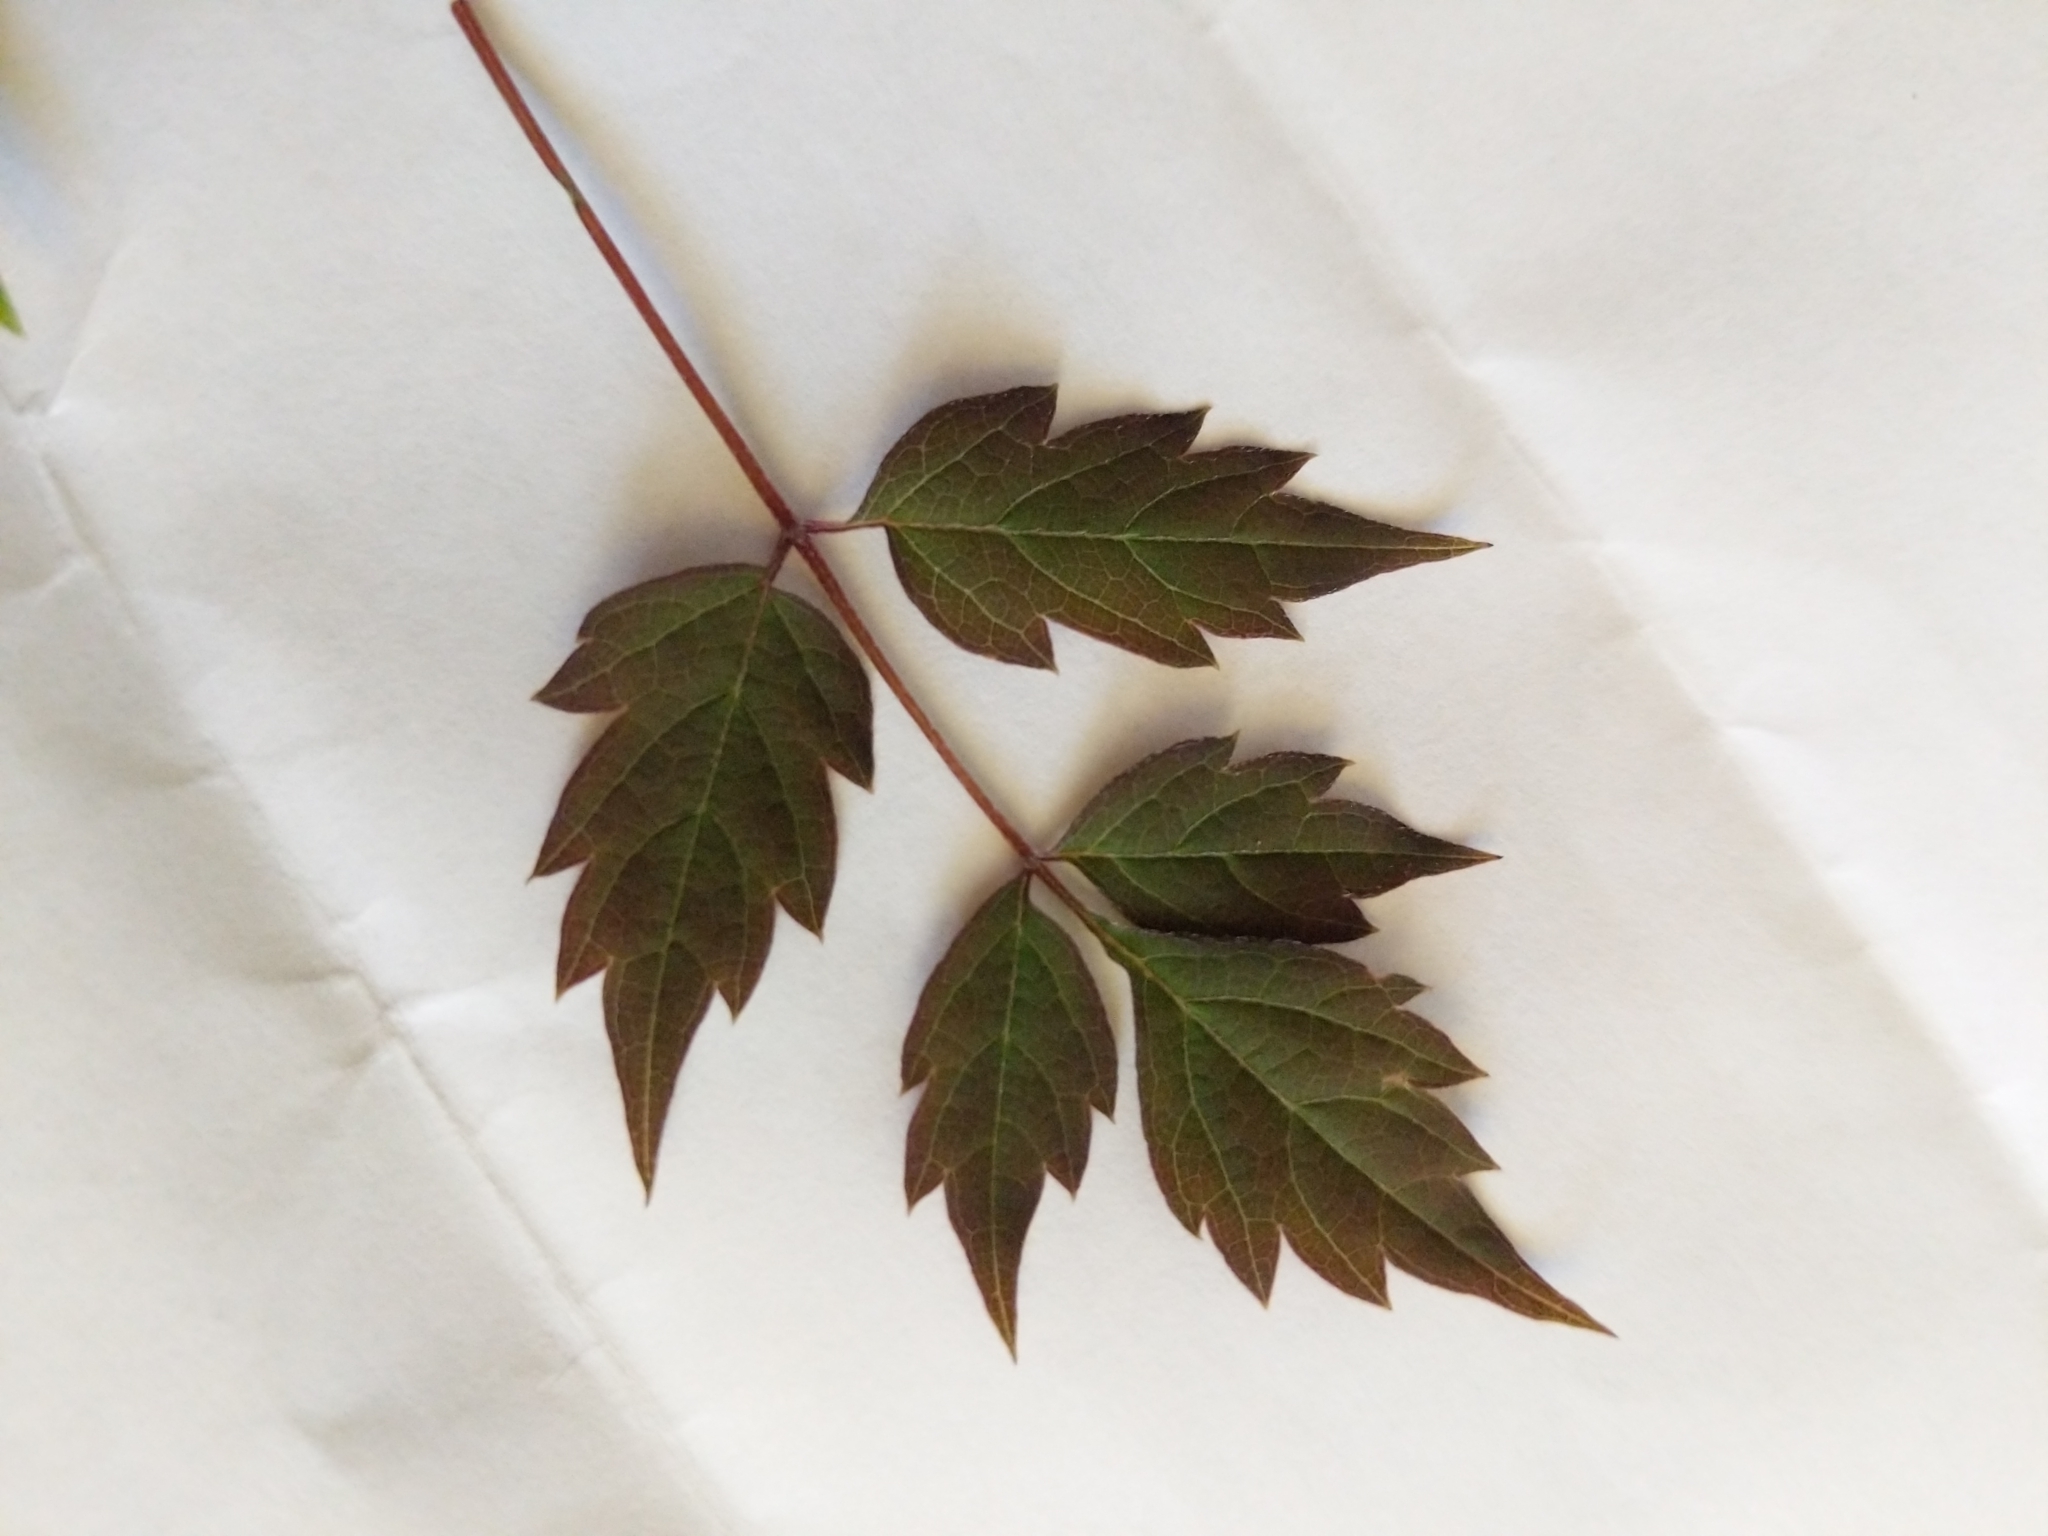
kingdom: Plantae
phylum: Tracheophyta
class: Magnoliopsida
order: Vitales
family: Vitaceae
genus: Nekemias
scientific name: Nekemias arborea
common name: Peppervine
